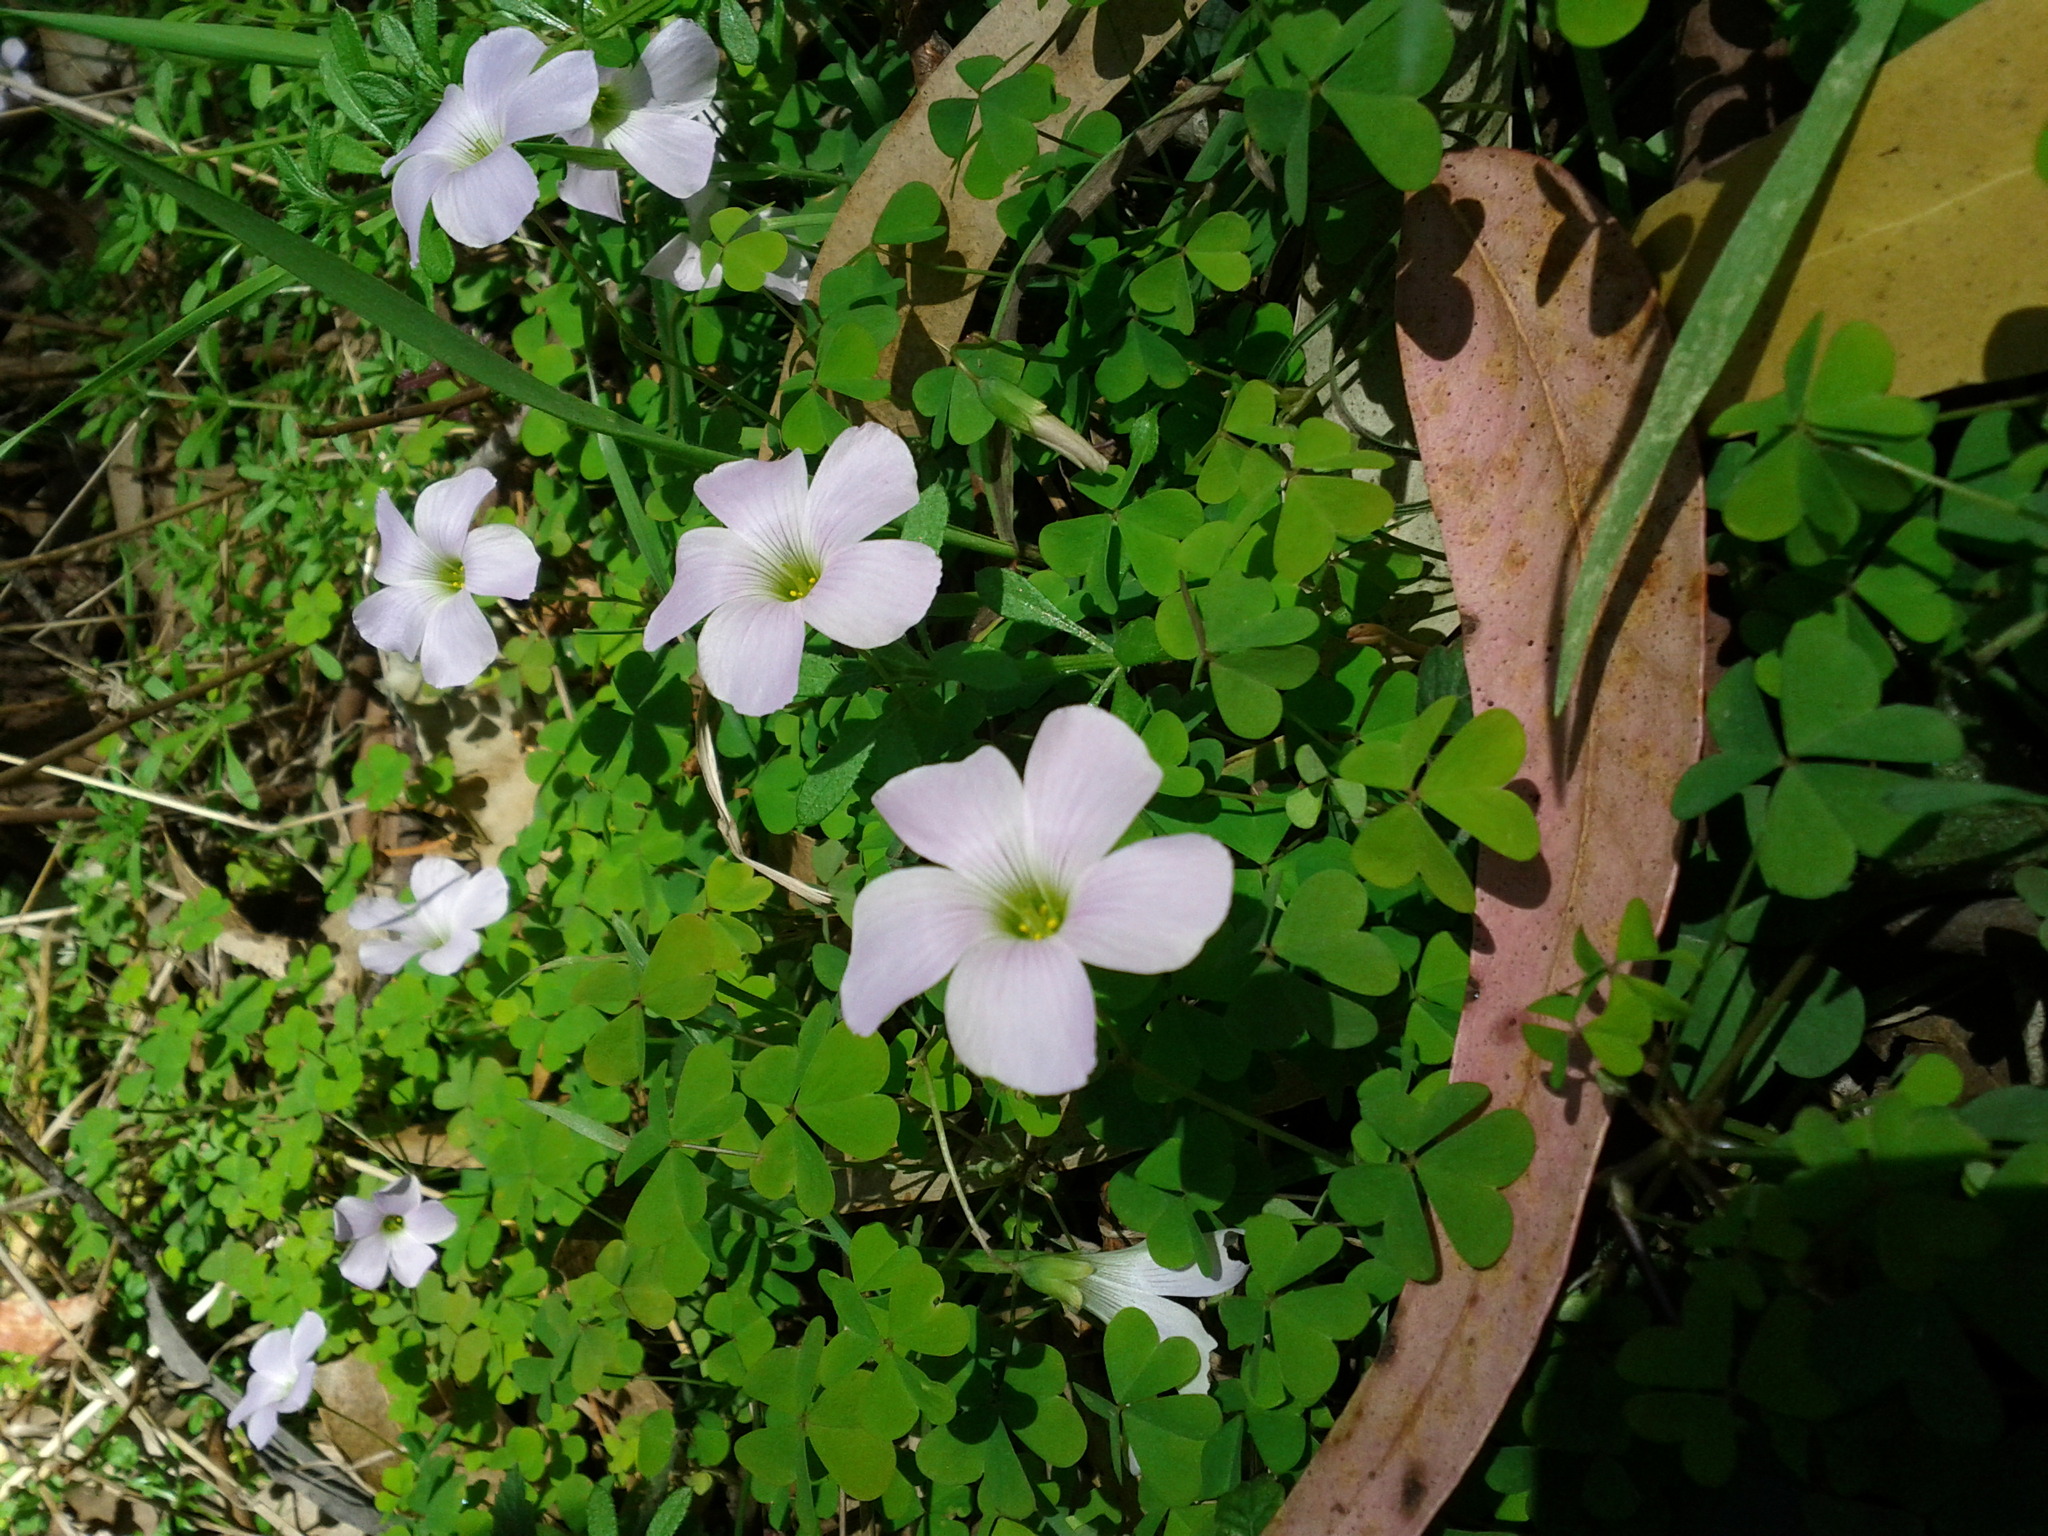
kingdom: Plantae
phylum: Tracheophyta
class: Magnoliopsida
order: Oxalidales
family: Oxalidaceae
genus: Oxalis
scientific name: Oxalis incarnata
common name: Pale pink-sorrel
